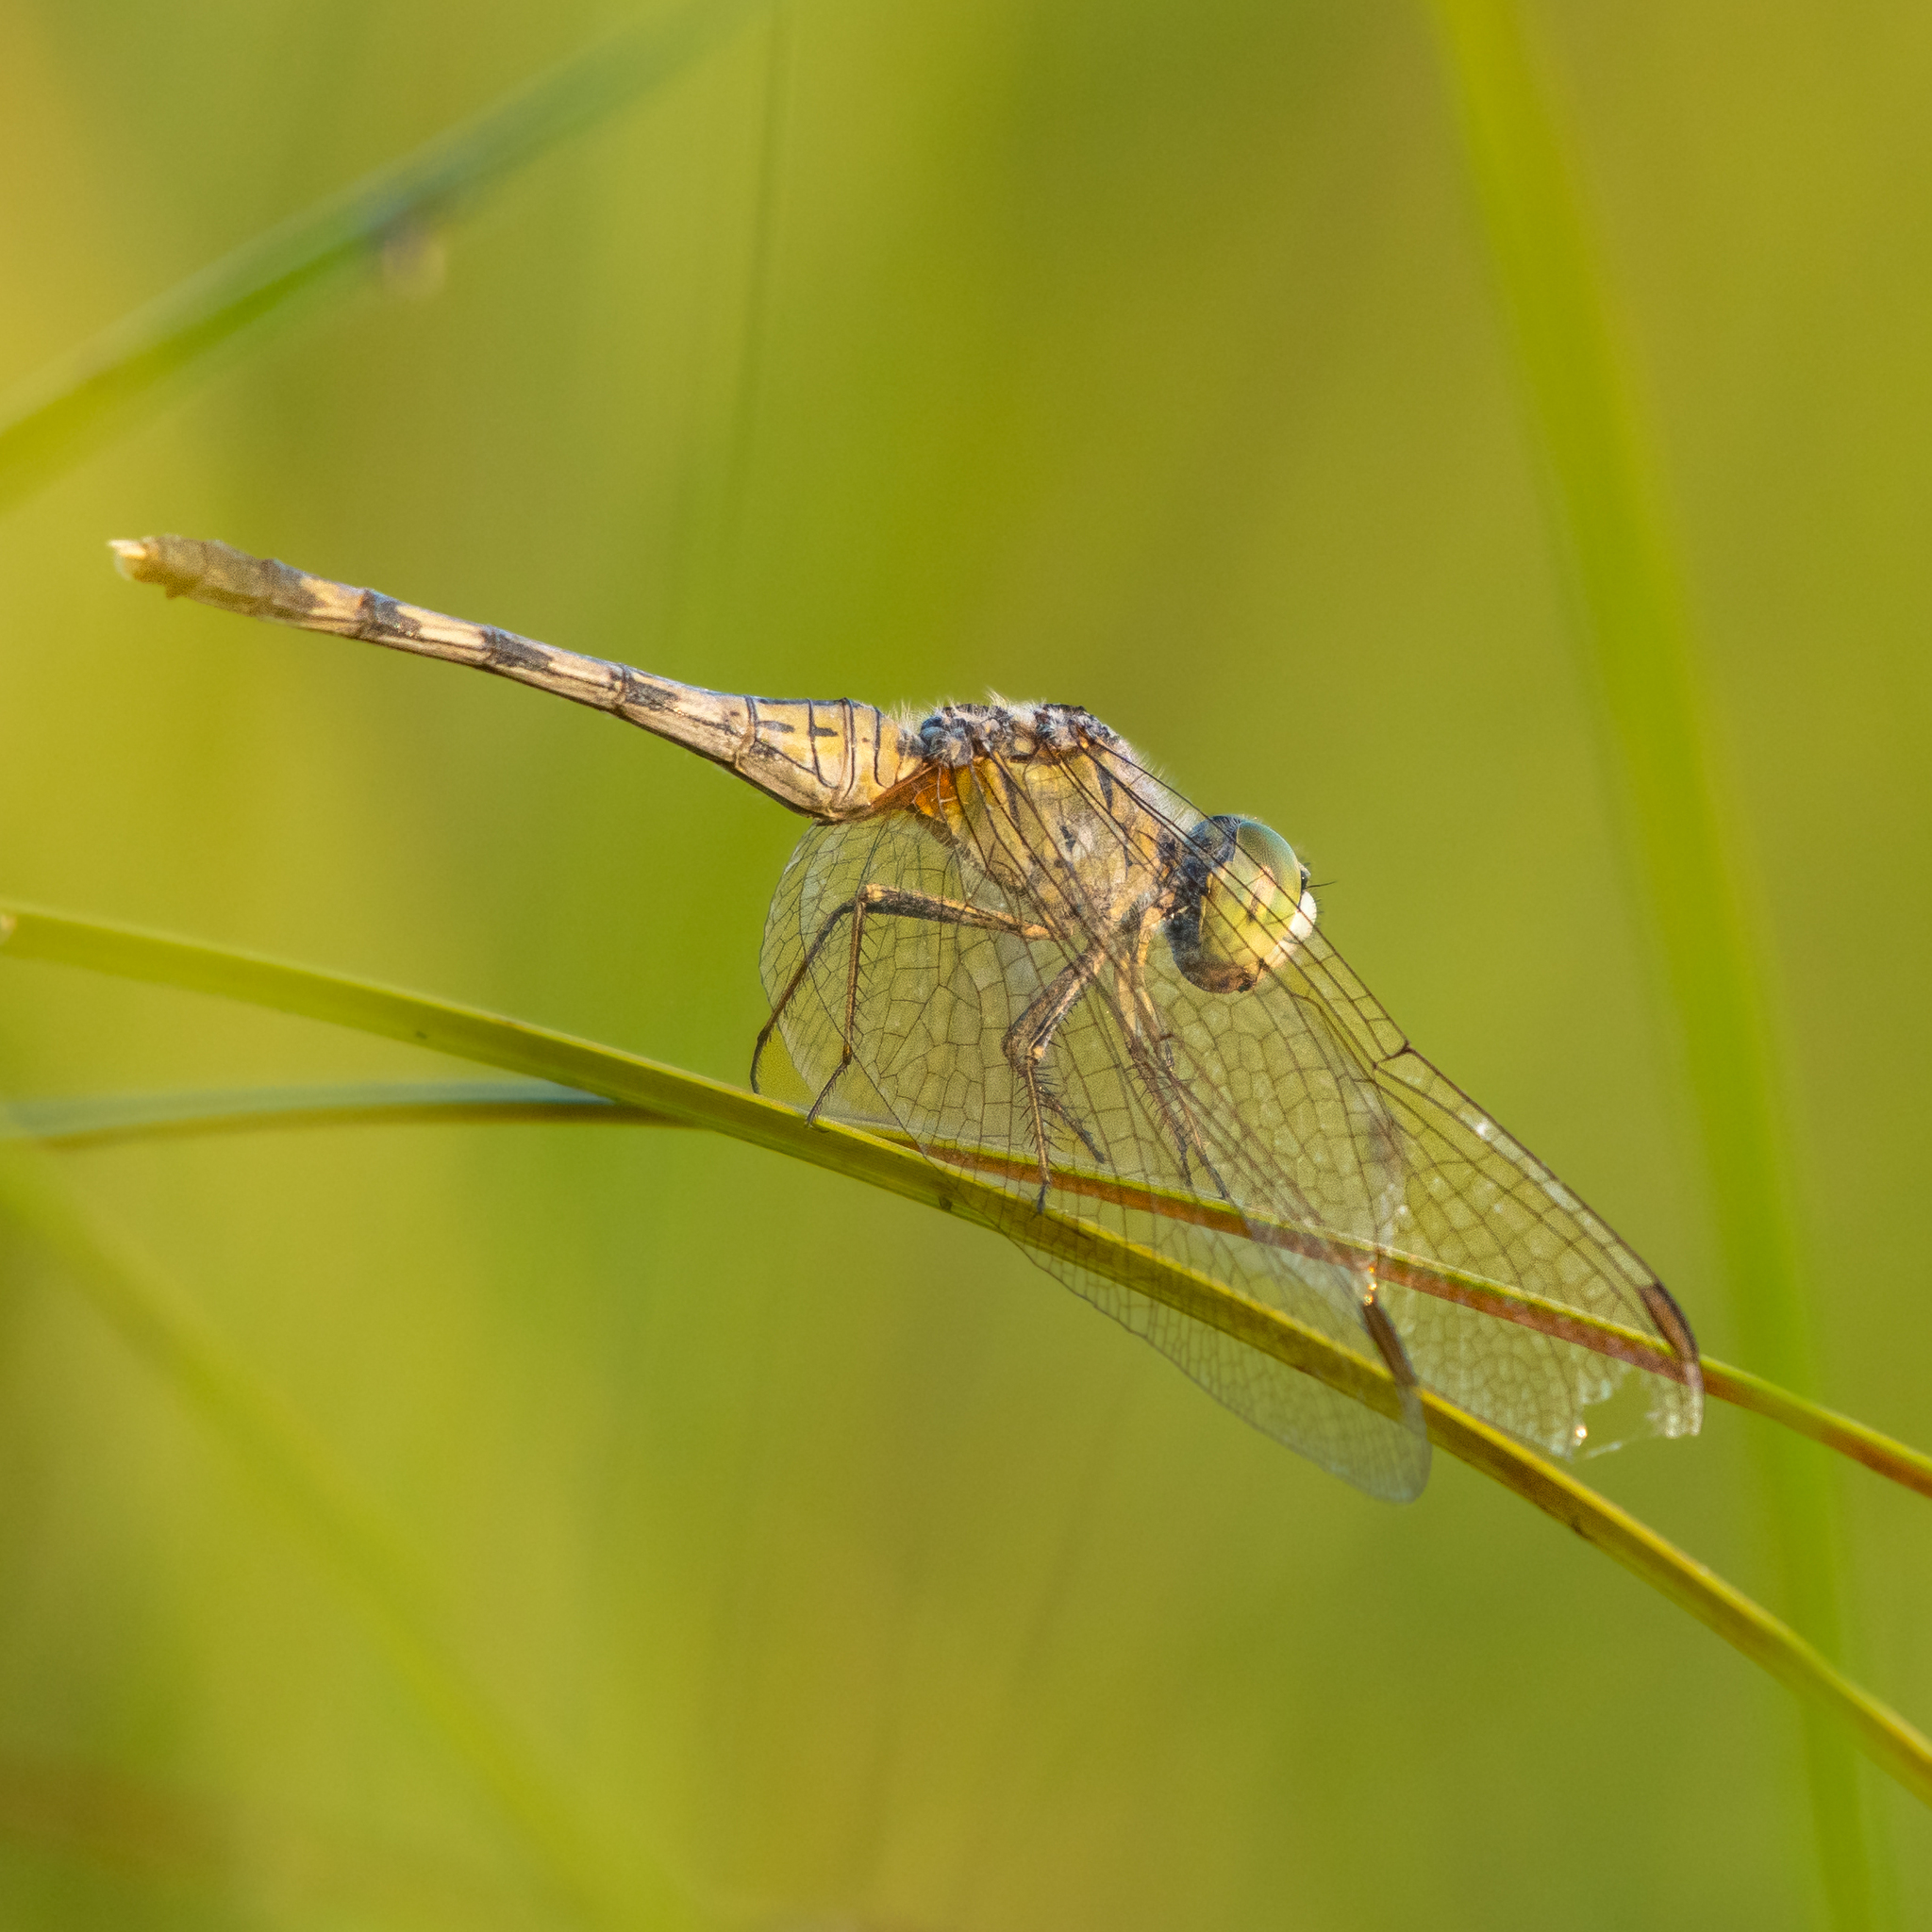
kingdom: Animalia
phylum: Arthropoda
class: Insecta
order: Odonata
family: Libellulidae
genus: Diplacodes
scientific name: Diplacodes trivialis
